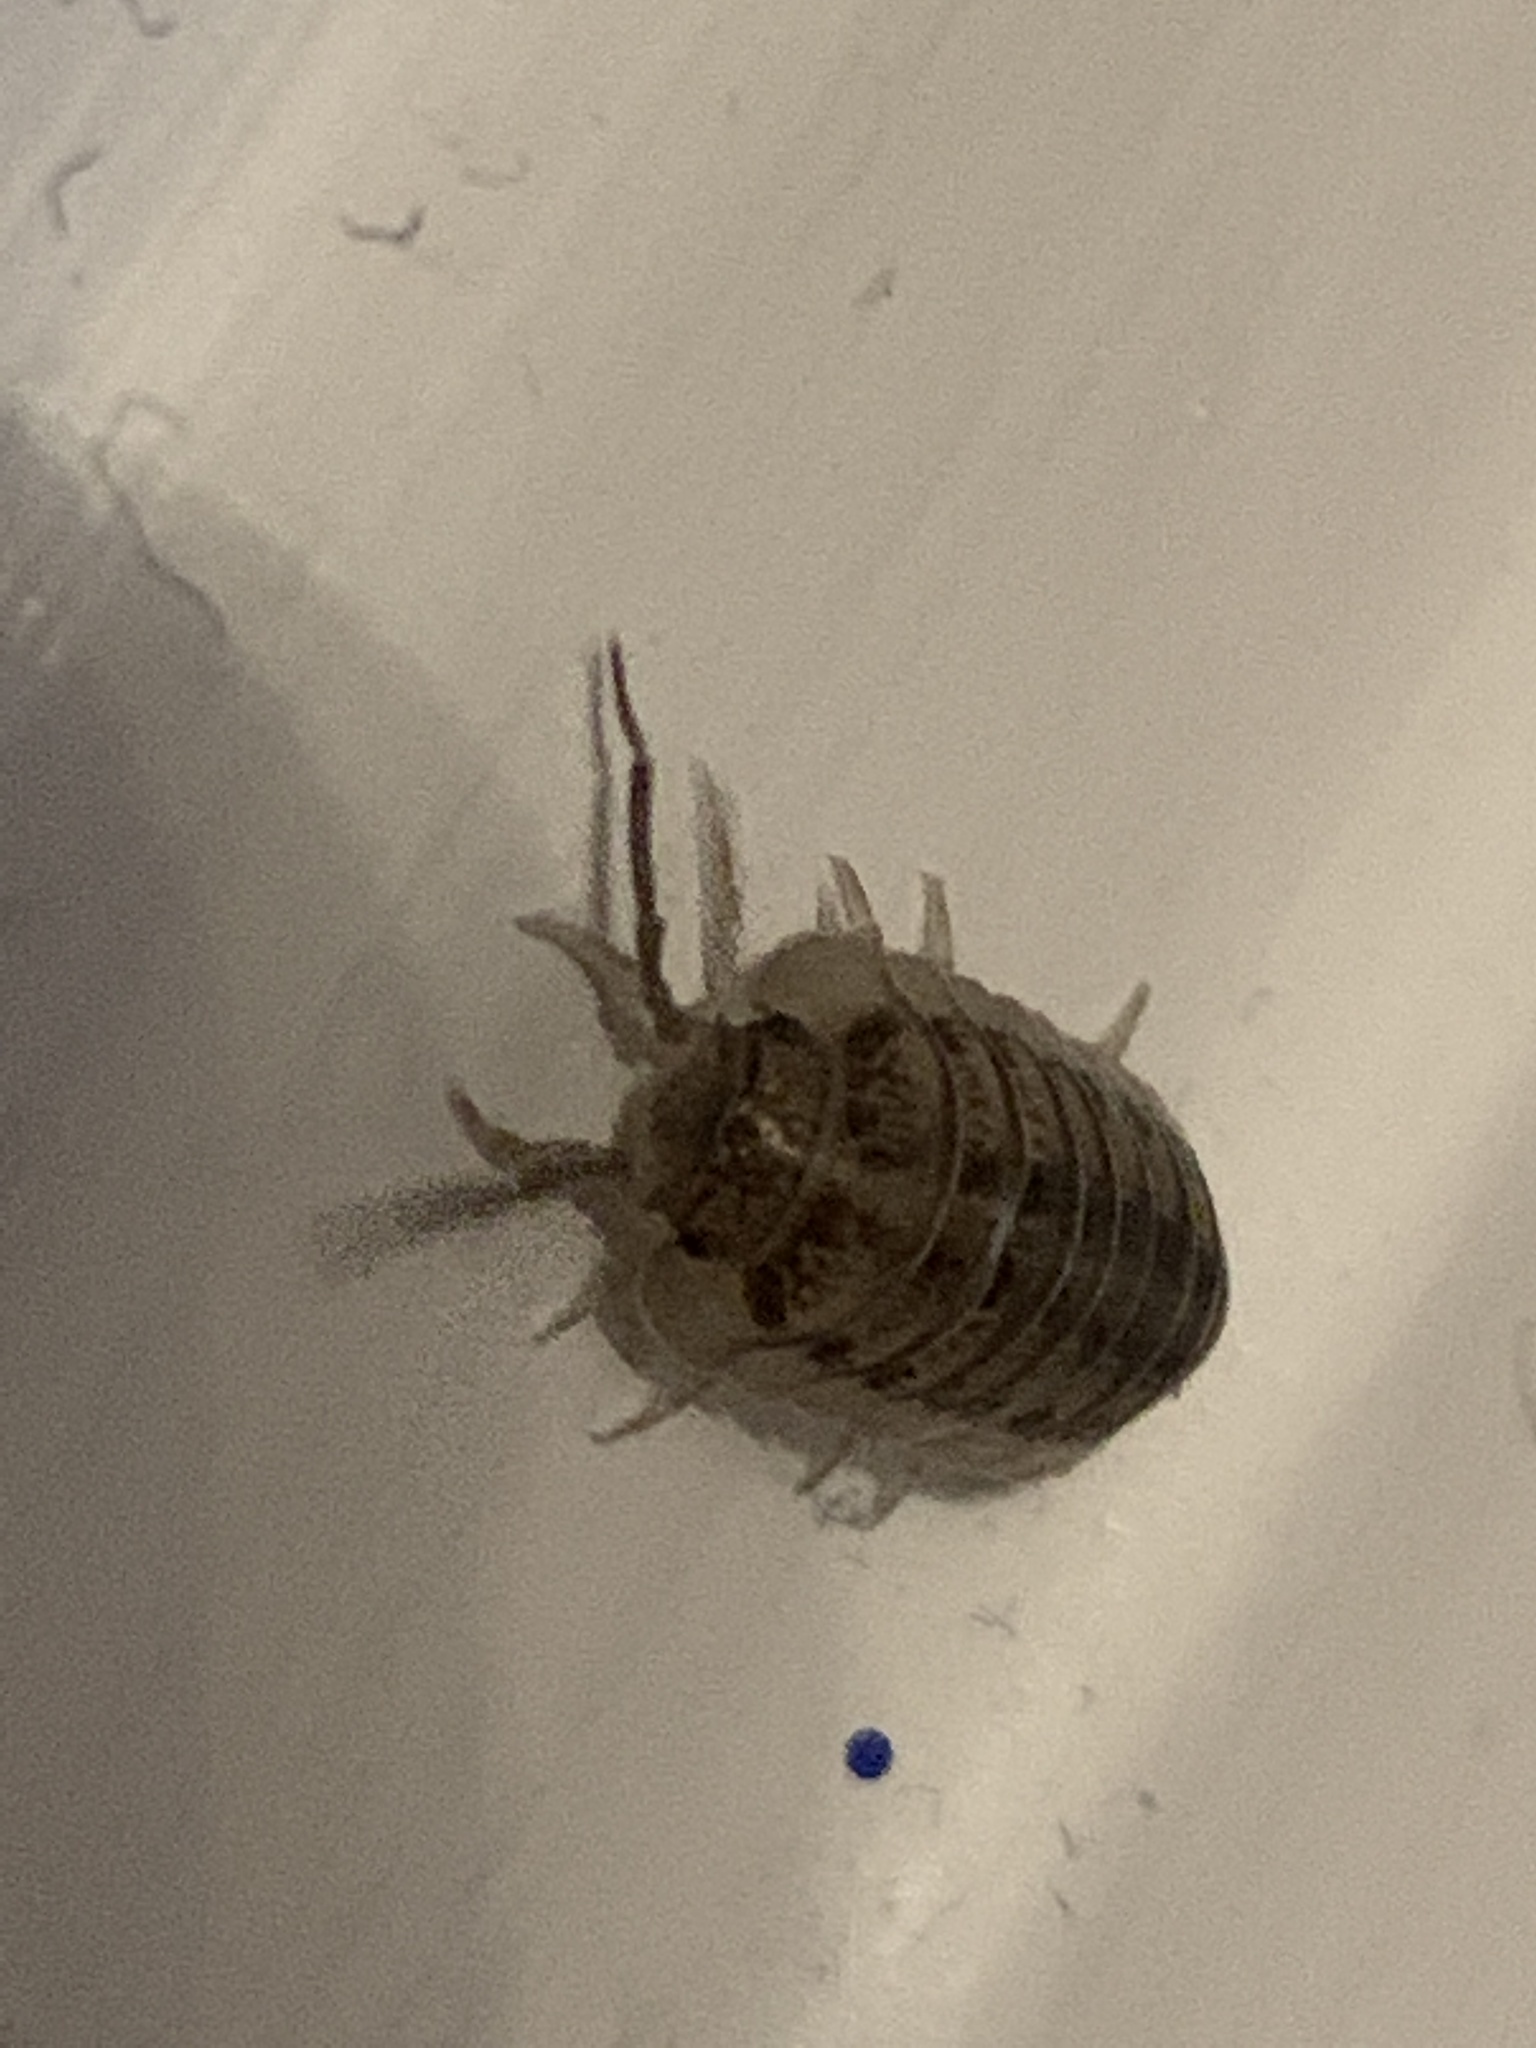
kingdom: Animalia
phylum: Arthropoda
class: Malacostraca
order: Isopoda
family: Armadillidiidae
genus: Armadillidium
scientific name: Armadillidium nasatum
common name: Isopod
